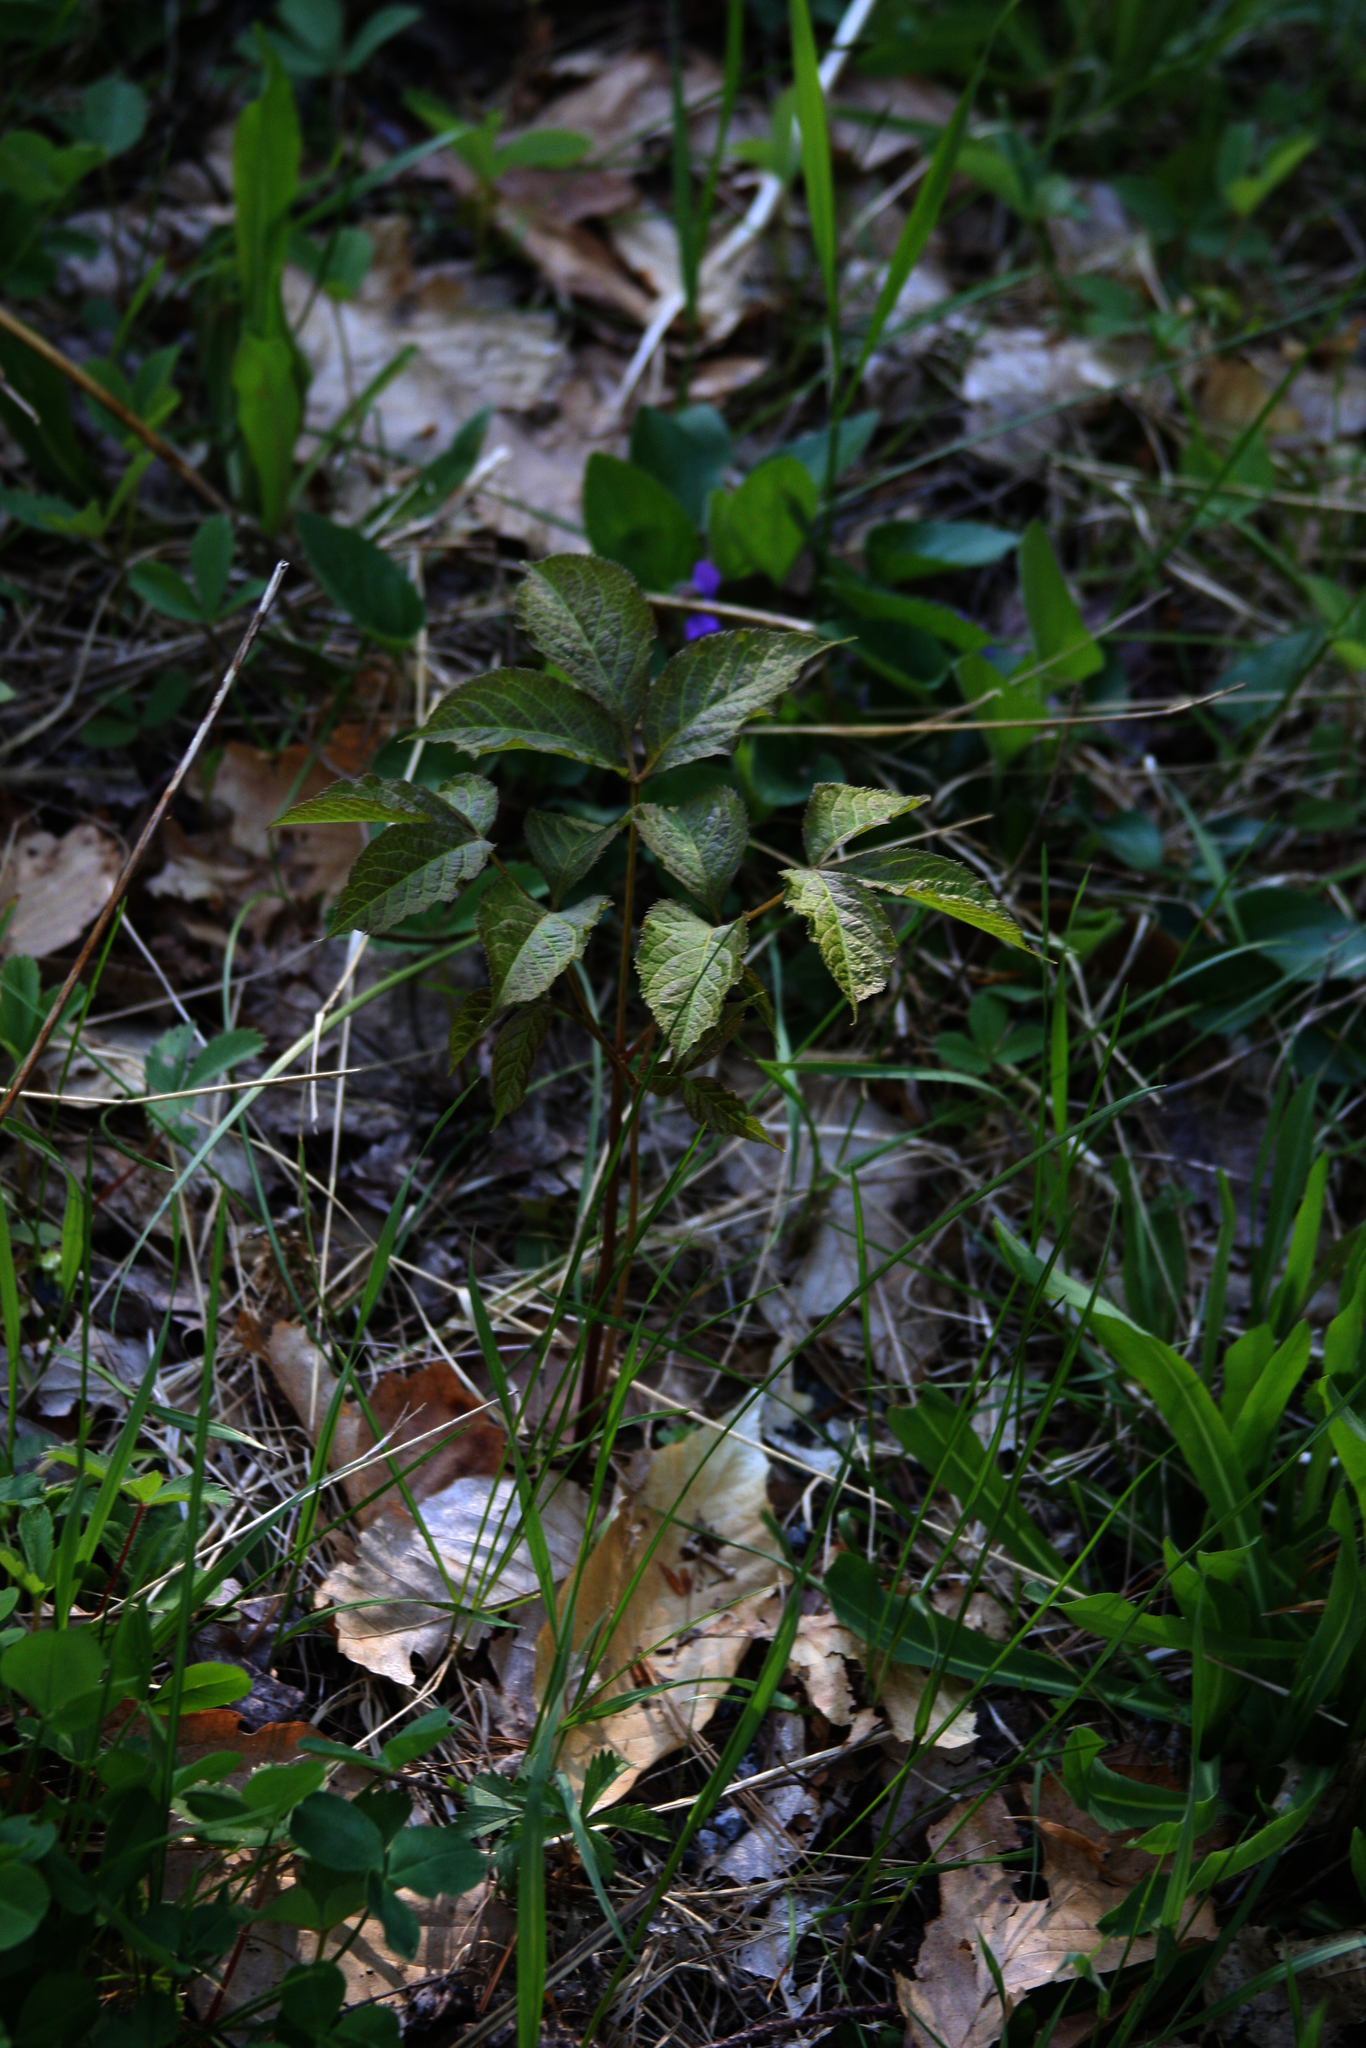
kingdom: Plantae
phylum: Tracheophyta
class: Magnoliopsida
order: Apiales
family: Araliaceae
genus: Aralia
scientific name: Aralia nudicaulis
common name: Wild sarsaparilla
